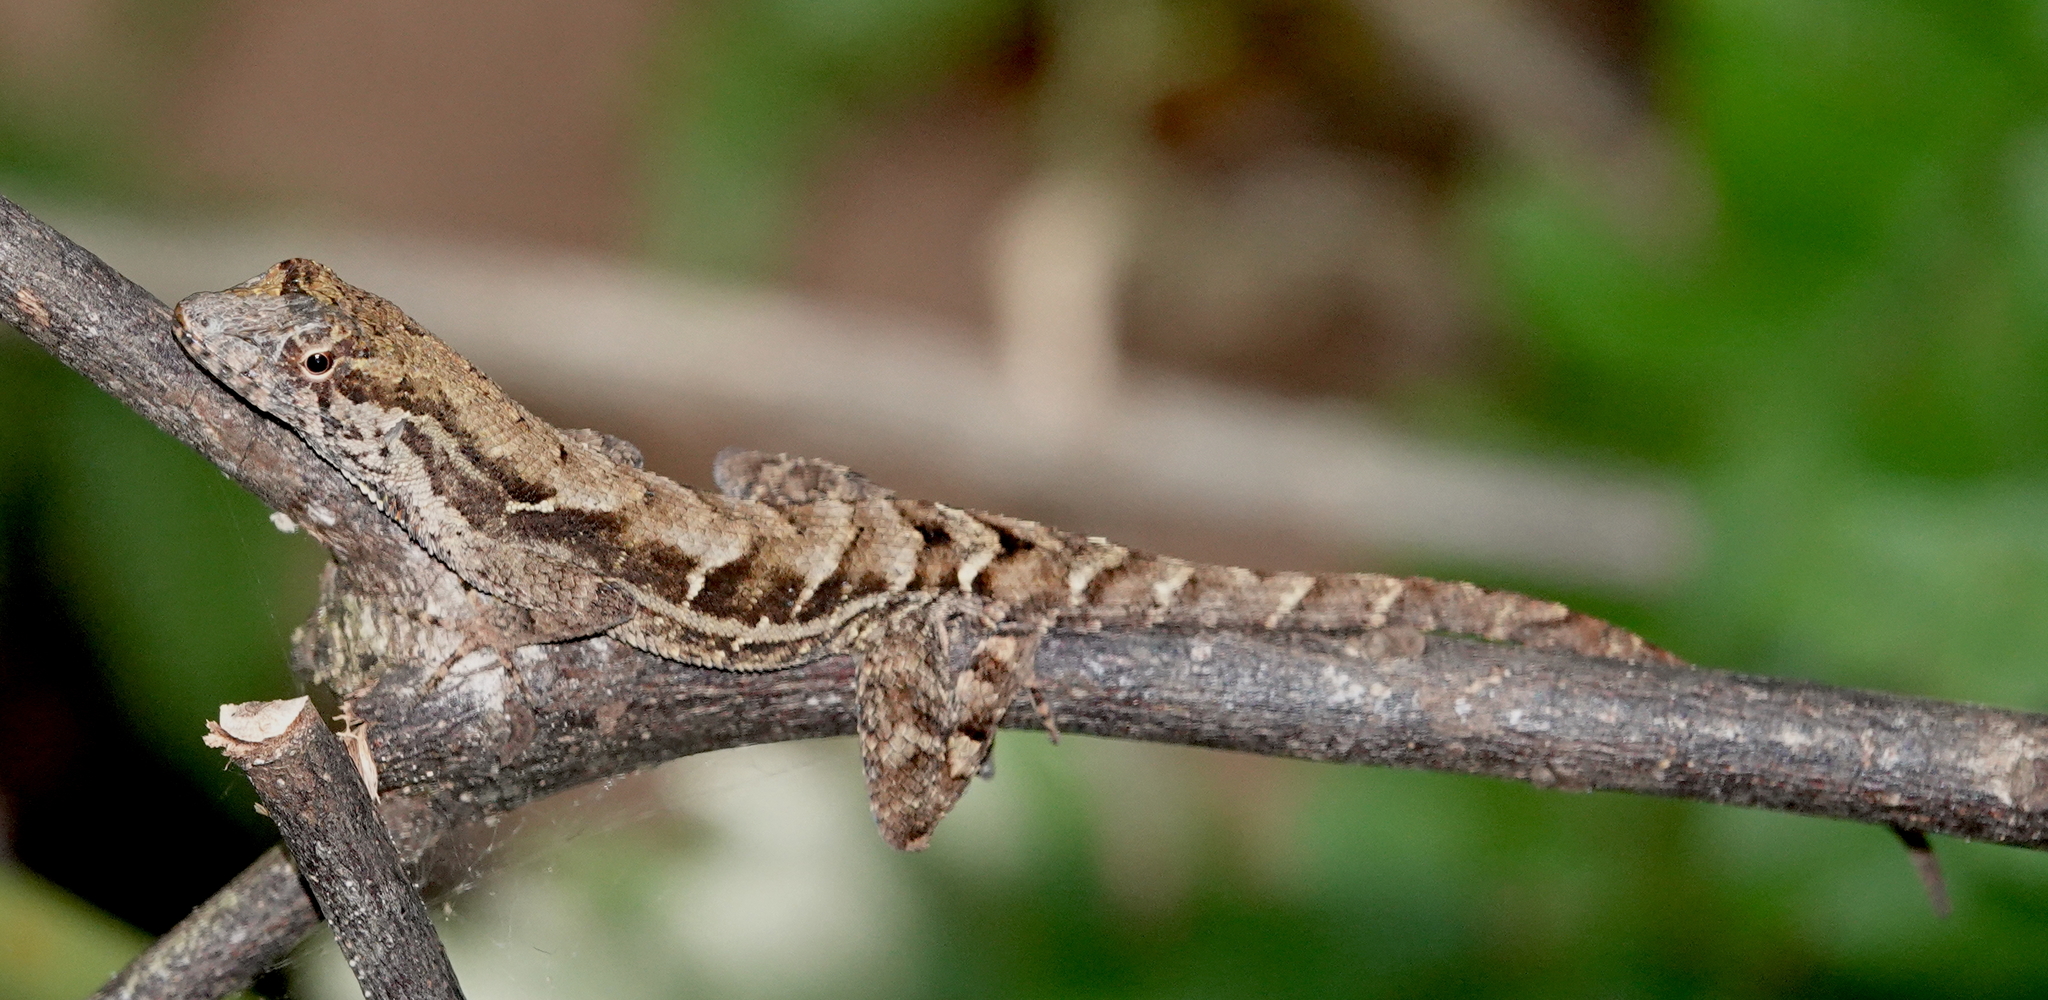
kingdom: Animalia
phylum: Chordata
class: Squamata
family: Dactyloidae
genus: Anolis
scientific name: Anolis wilsoni
